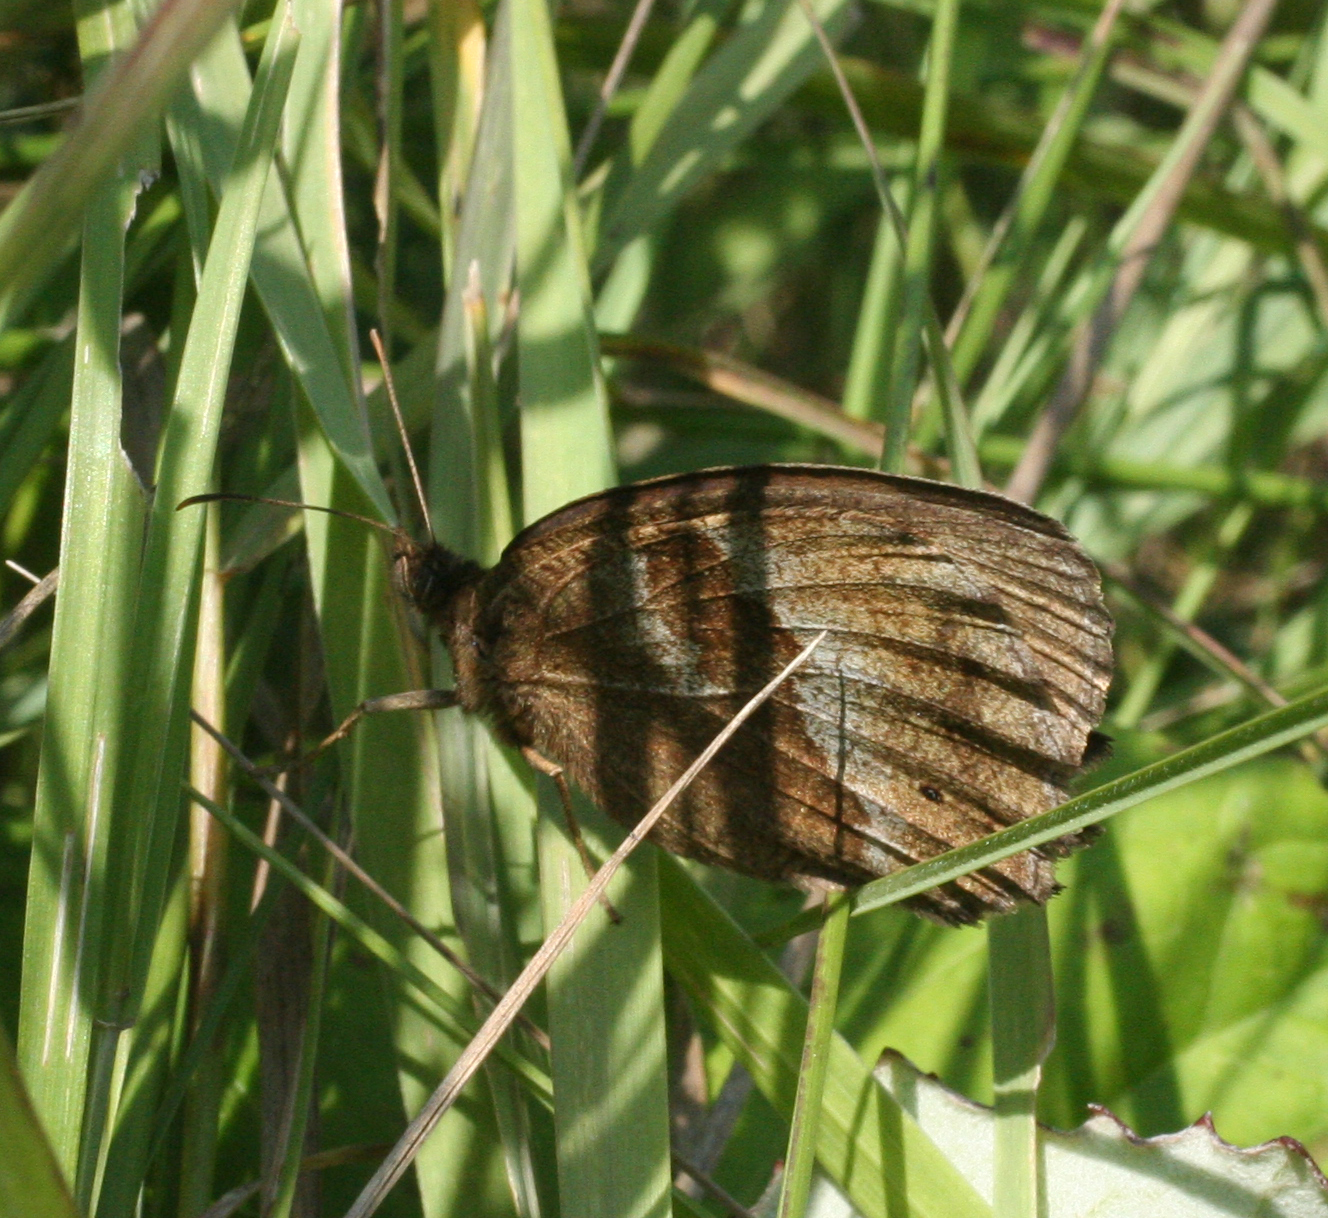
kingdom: Animalia
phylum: Arthropoda
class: Insecta
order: Lepidoptera
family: Nymphalidae
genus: Minois
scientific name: Minois dryas
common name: Dryad
